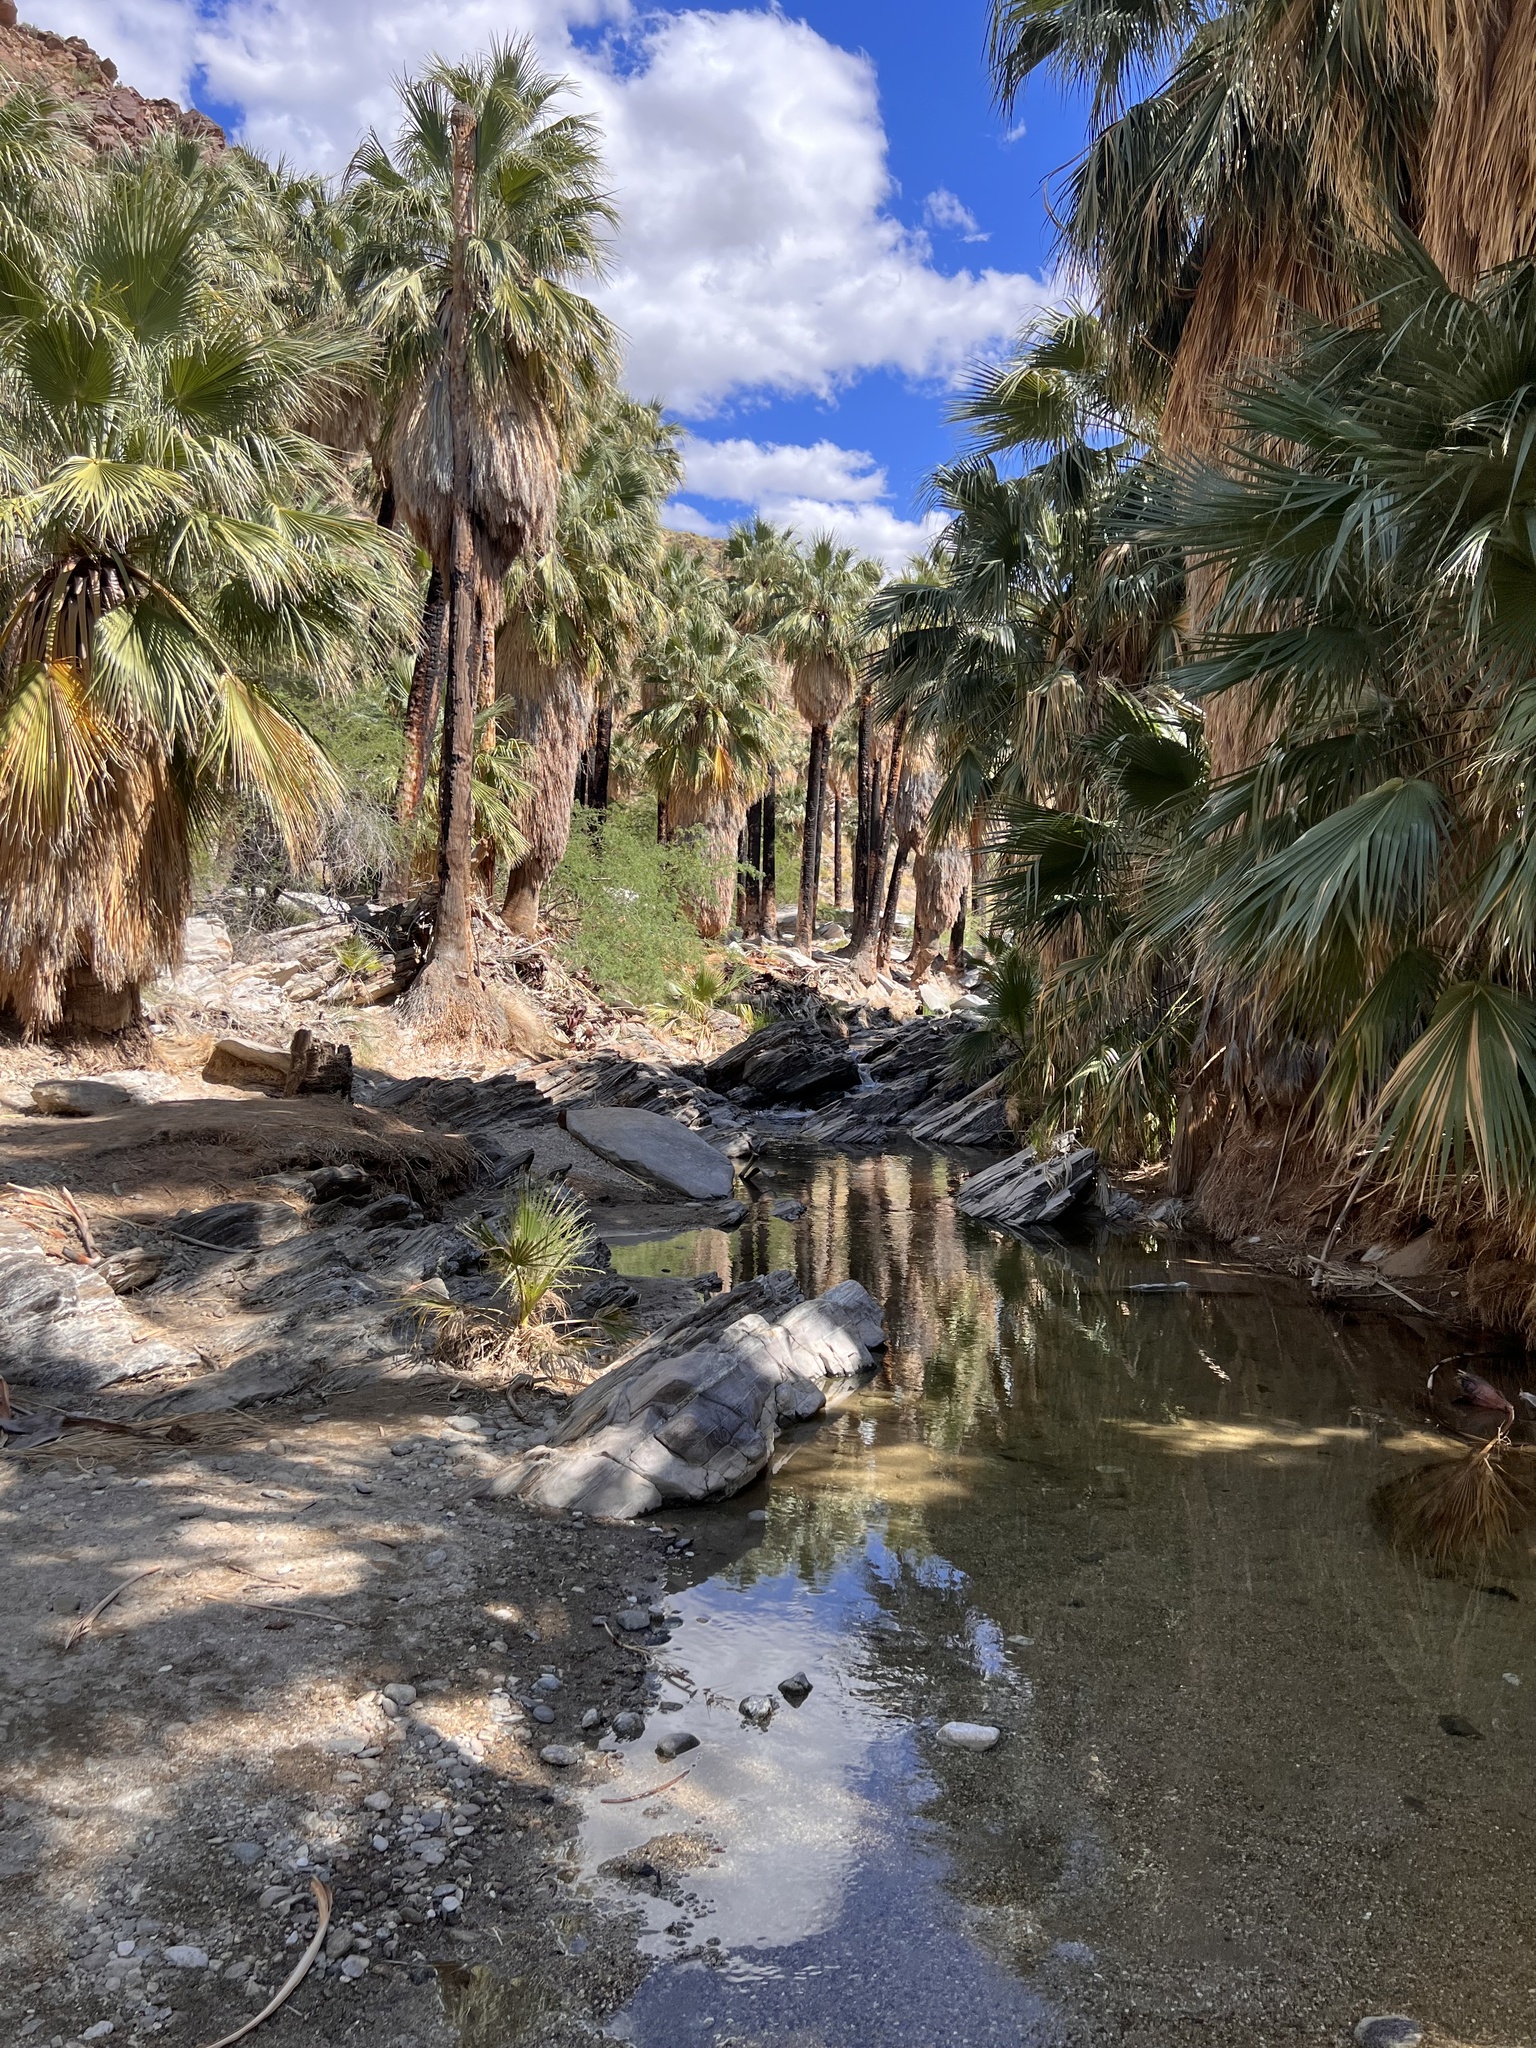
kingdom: Plantae
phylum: Tracheophyta
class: Liliopsida
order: Arecales
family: Arecaceae
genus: Washingtonia
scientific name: Washingtonia filifera
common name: California fan palm
